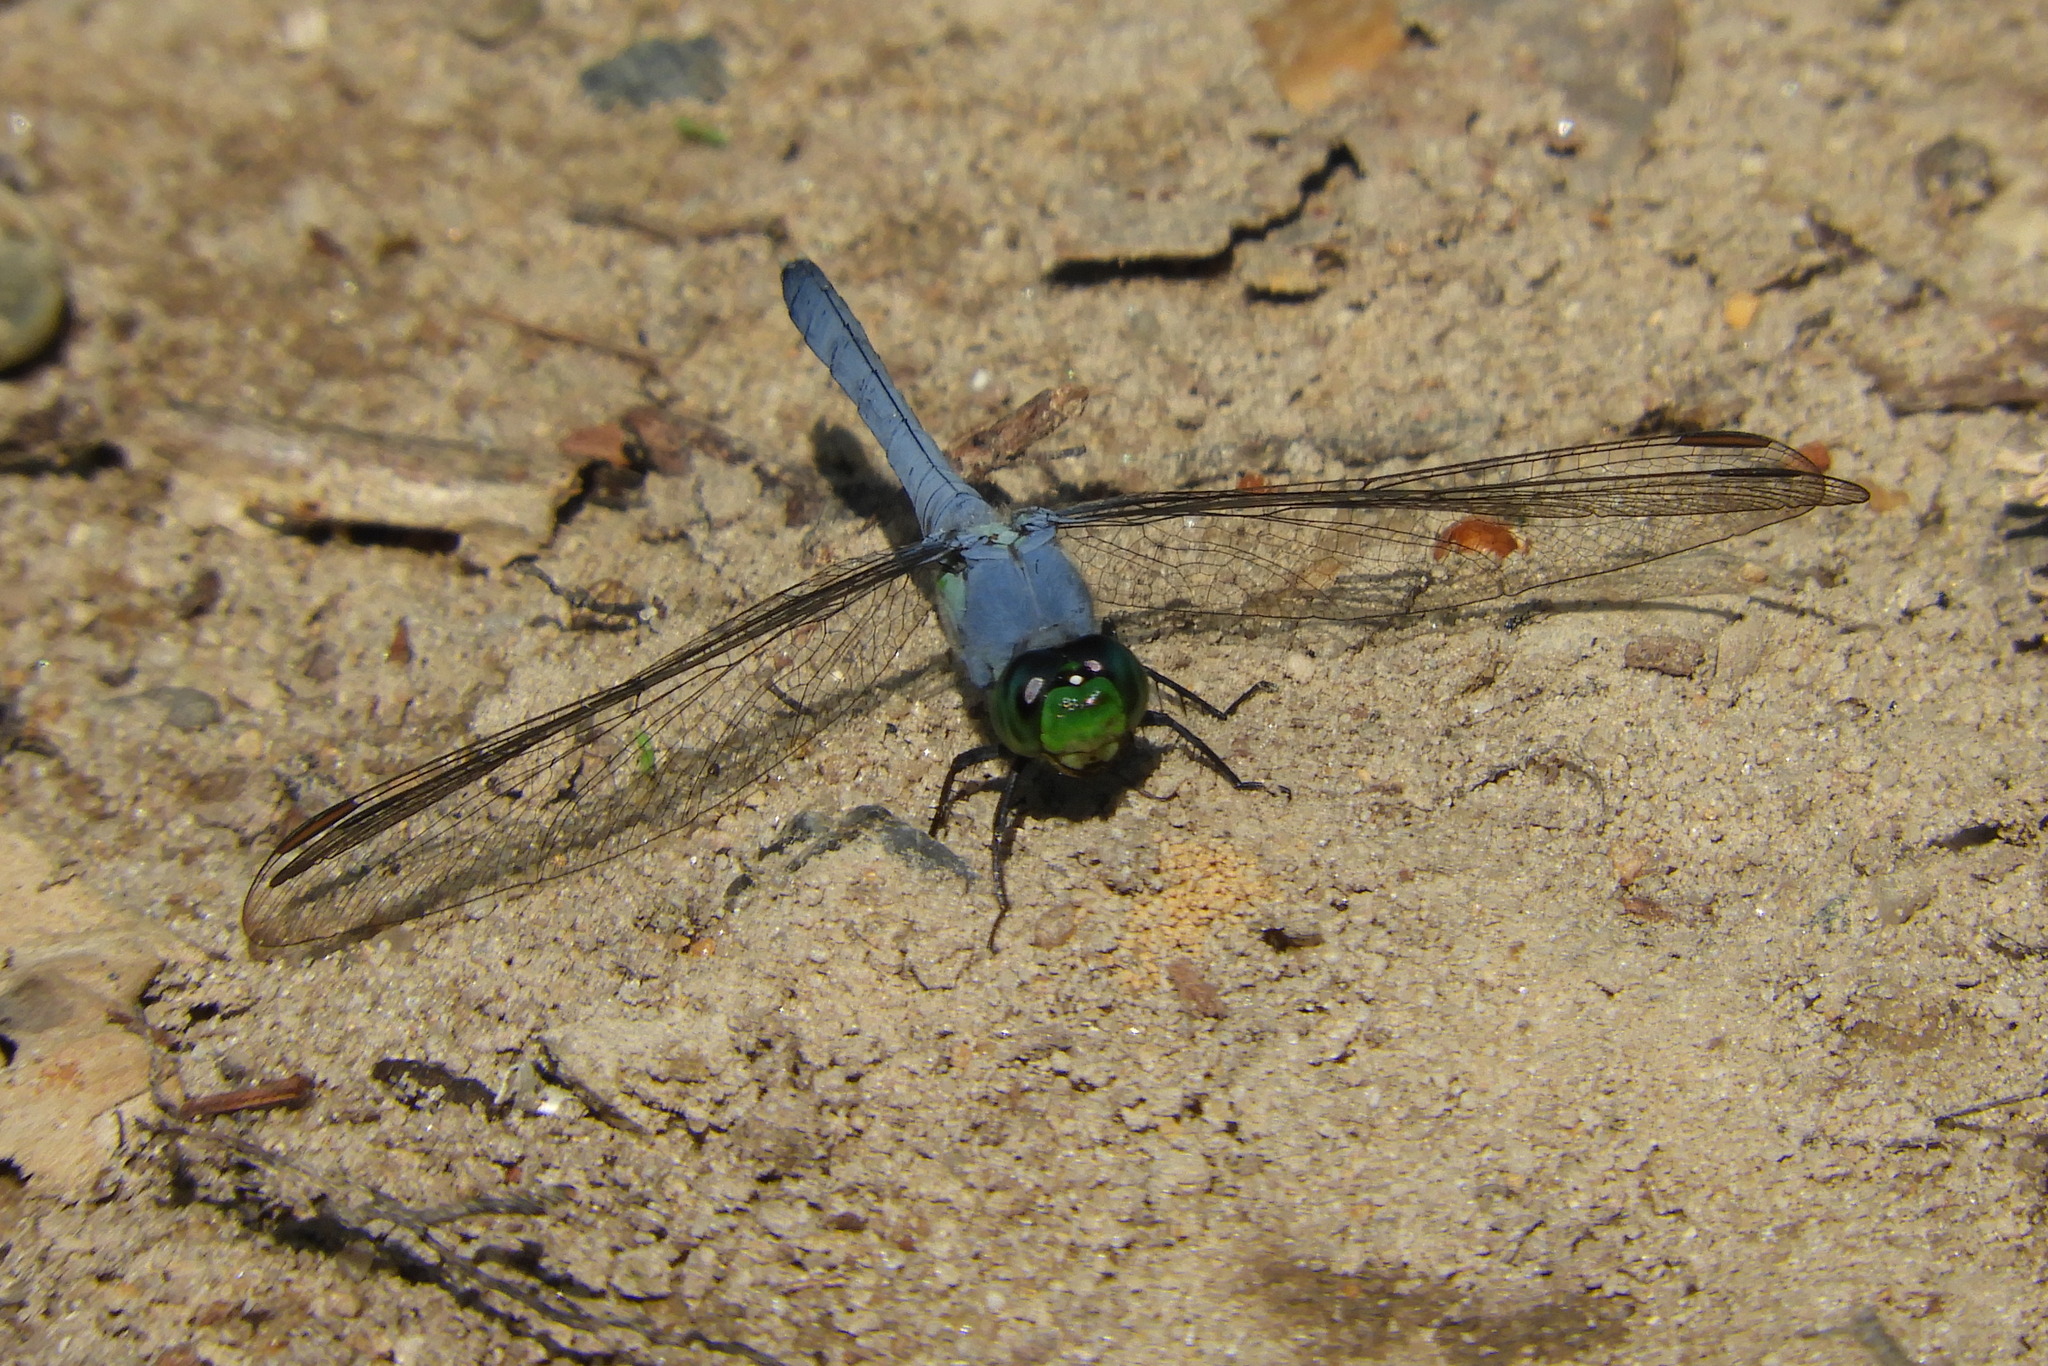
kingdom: Animalia
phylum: Arthropoda
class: Insecta
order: Odonata
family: Libellulidae
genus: Erythemis
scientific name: Erythemis simplicicollis
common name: Eastern pondhawk
